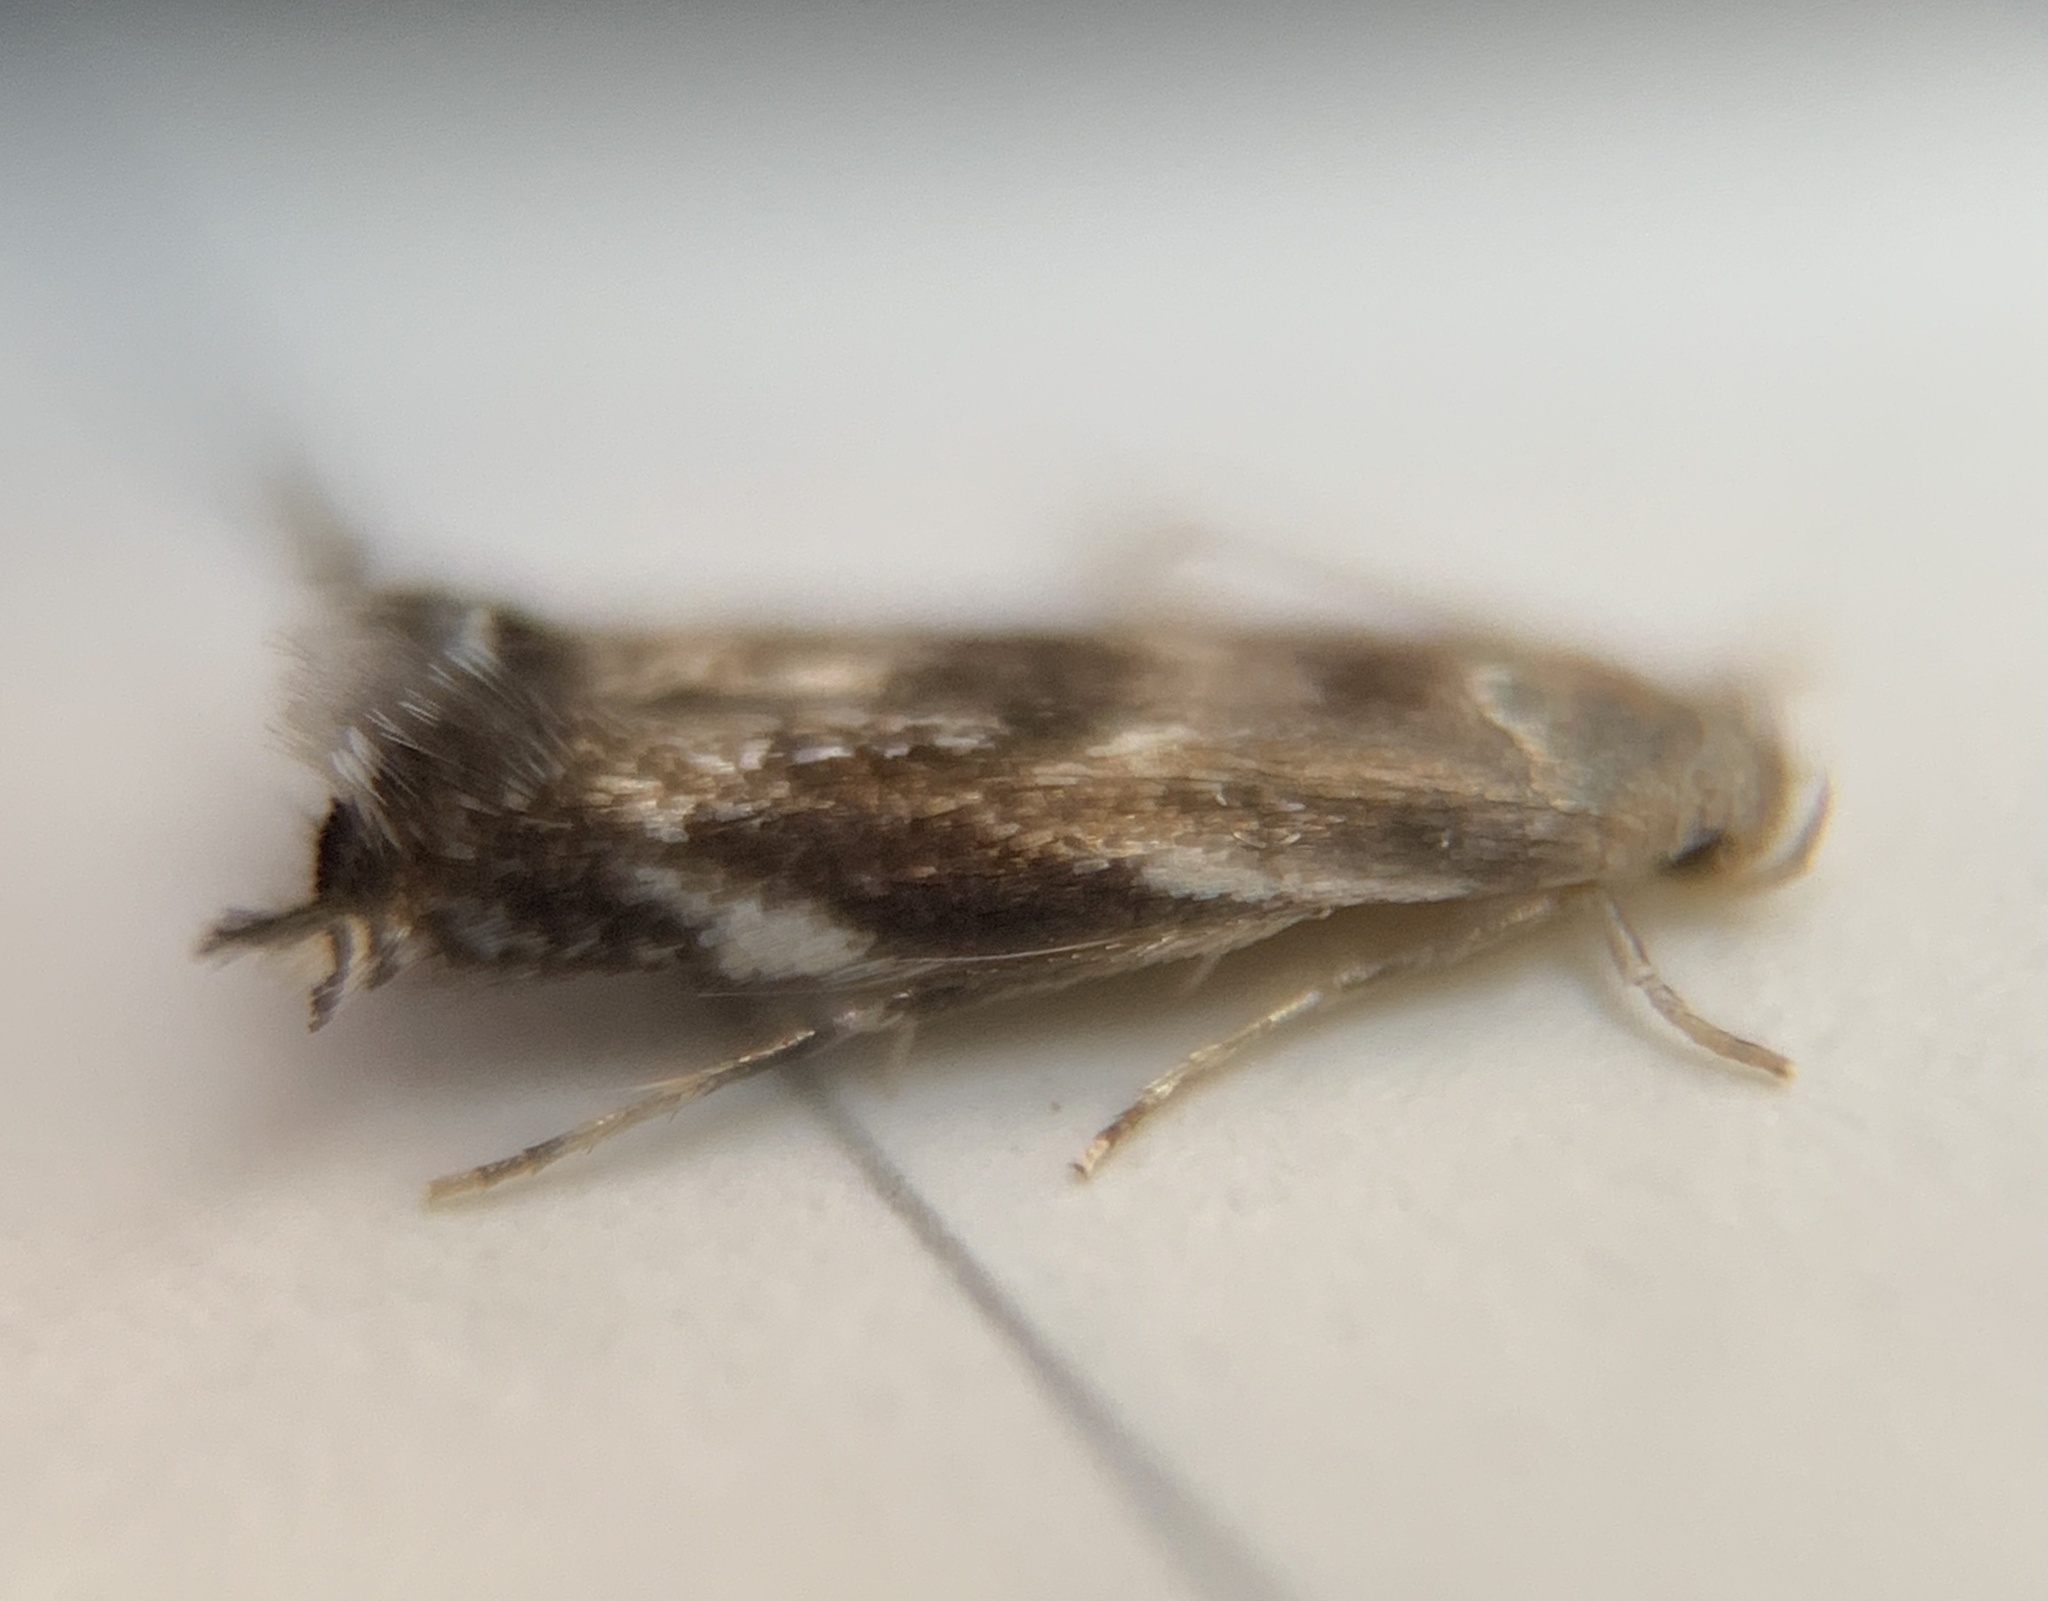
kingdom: Animalia
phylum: Arthropoda
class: Insecta
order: Lepidoptera
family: Elachistidae
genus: Elachista
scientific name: Elachista helodella
